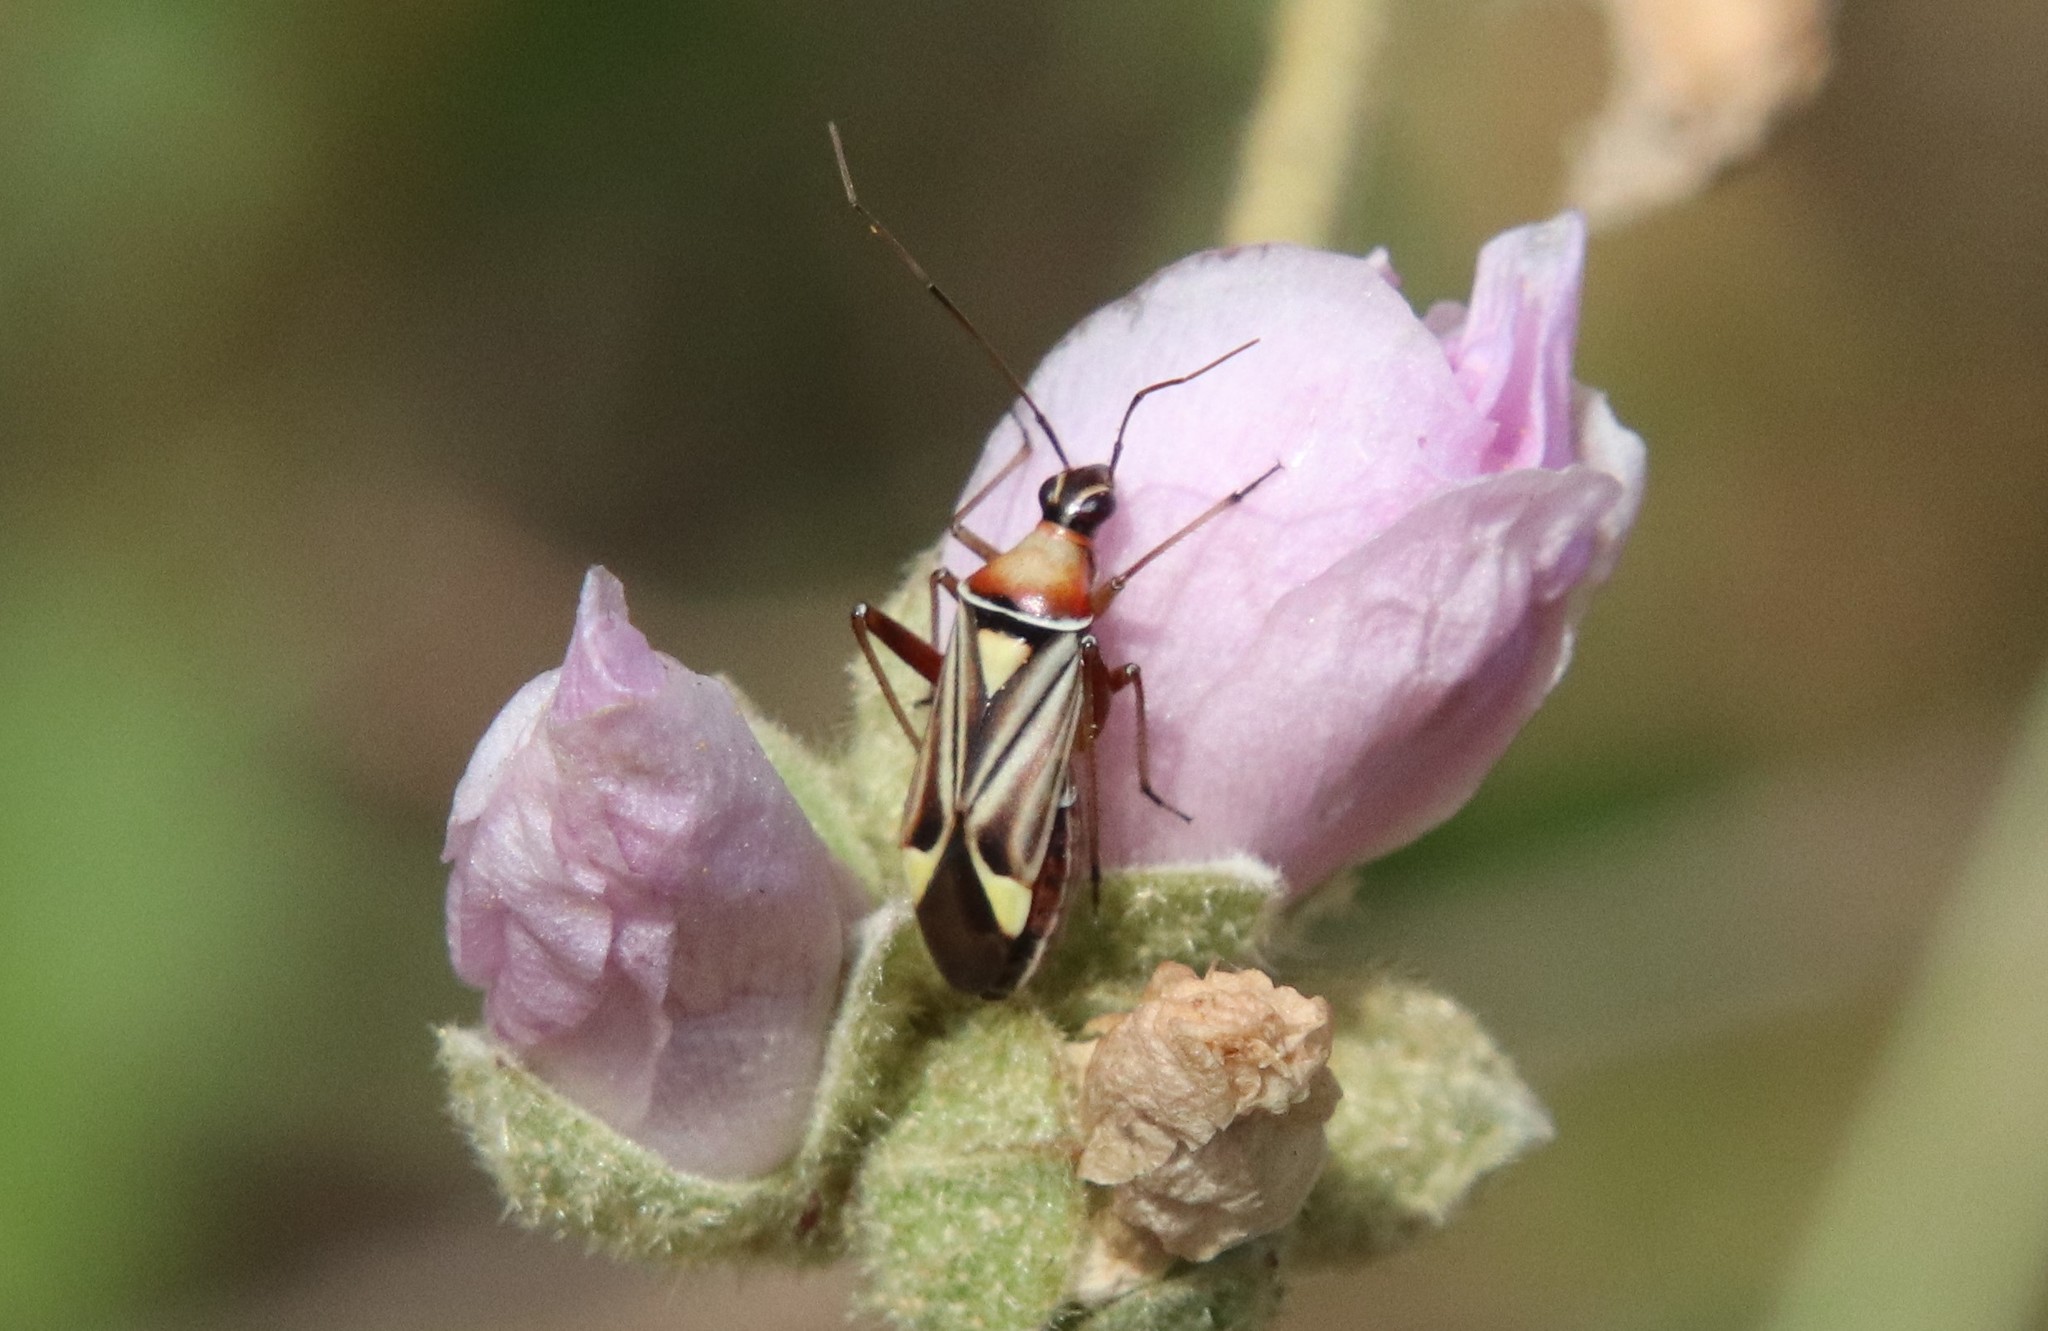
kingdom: Animalia
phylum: Arthropoda
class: Insecta
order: Hemiptera
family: Miridae
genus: Closterocoris
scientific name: Closterocoris amoenus
